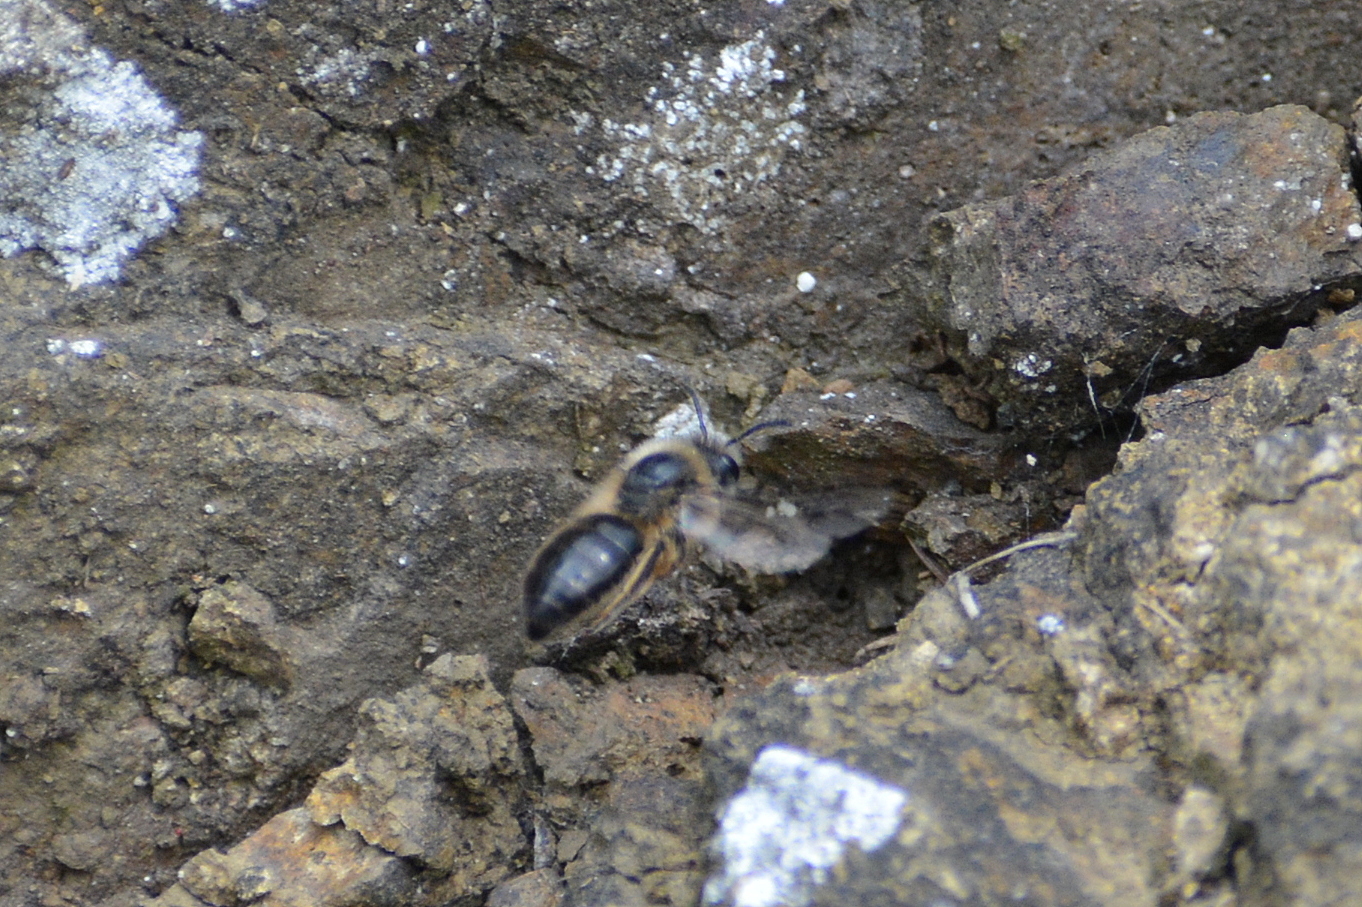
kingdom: Animalia
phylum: Arthropoda
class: Insecta
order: Hymenoptera
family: Colletidae
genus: Colletes
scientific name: Colletes cunicularius
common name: Early colletes
